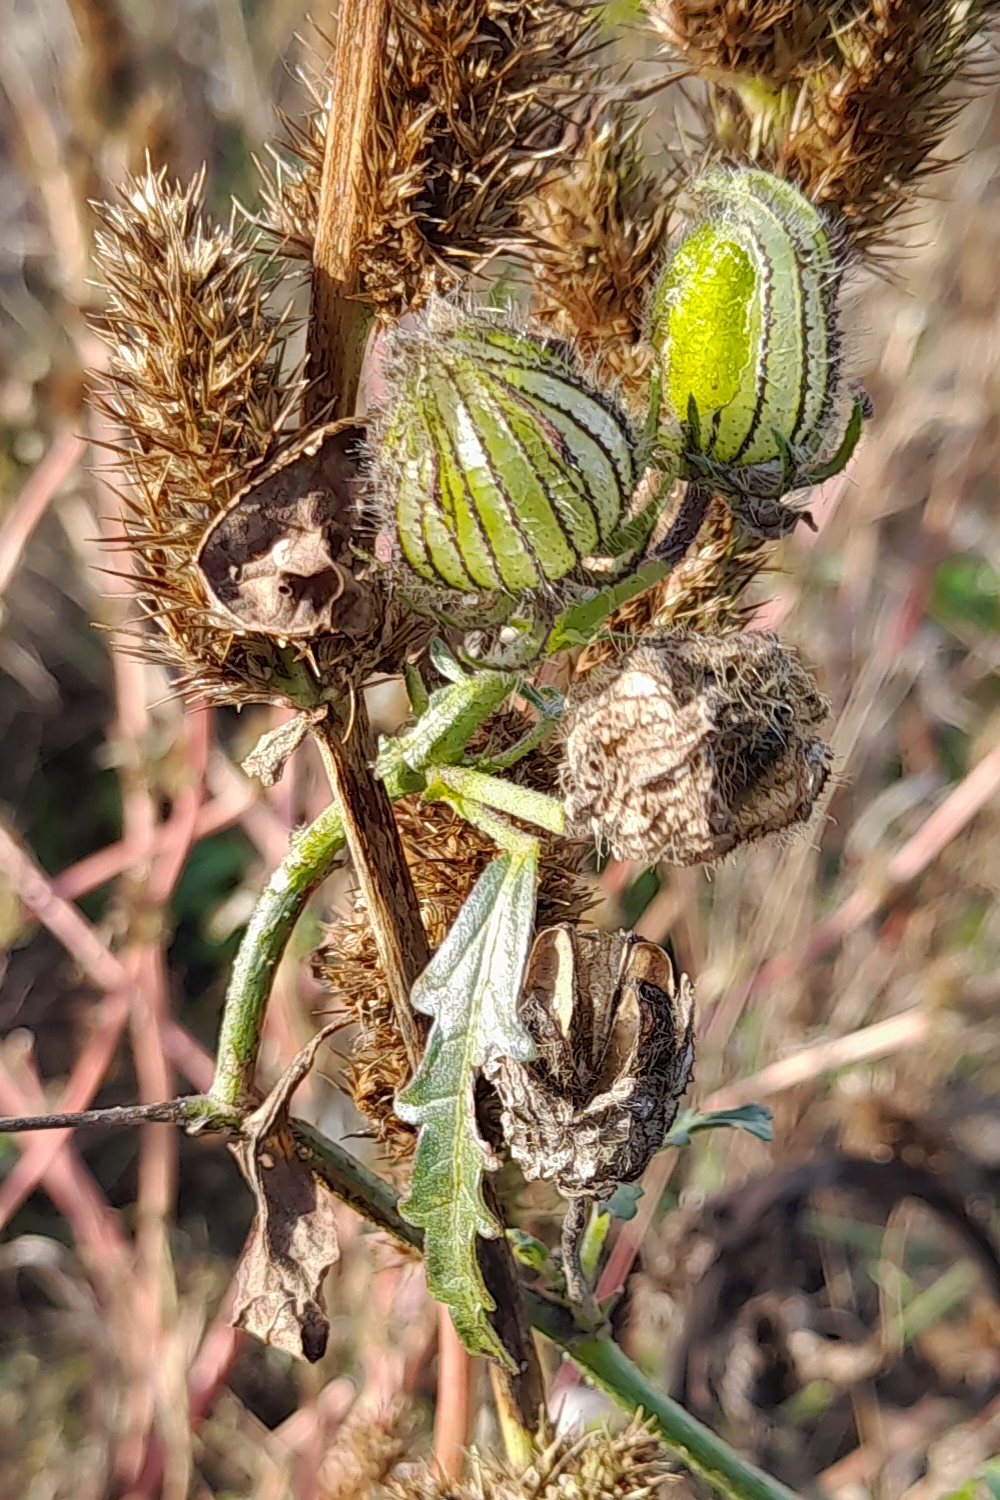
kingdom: Plantae
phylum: Tracheophyta
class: Magnoliopsida
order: Malvales
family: Malvaceae
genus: Hibiscus
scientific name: Hibiscus trionum
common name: Bladder ketmia
